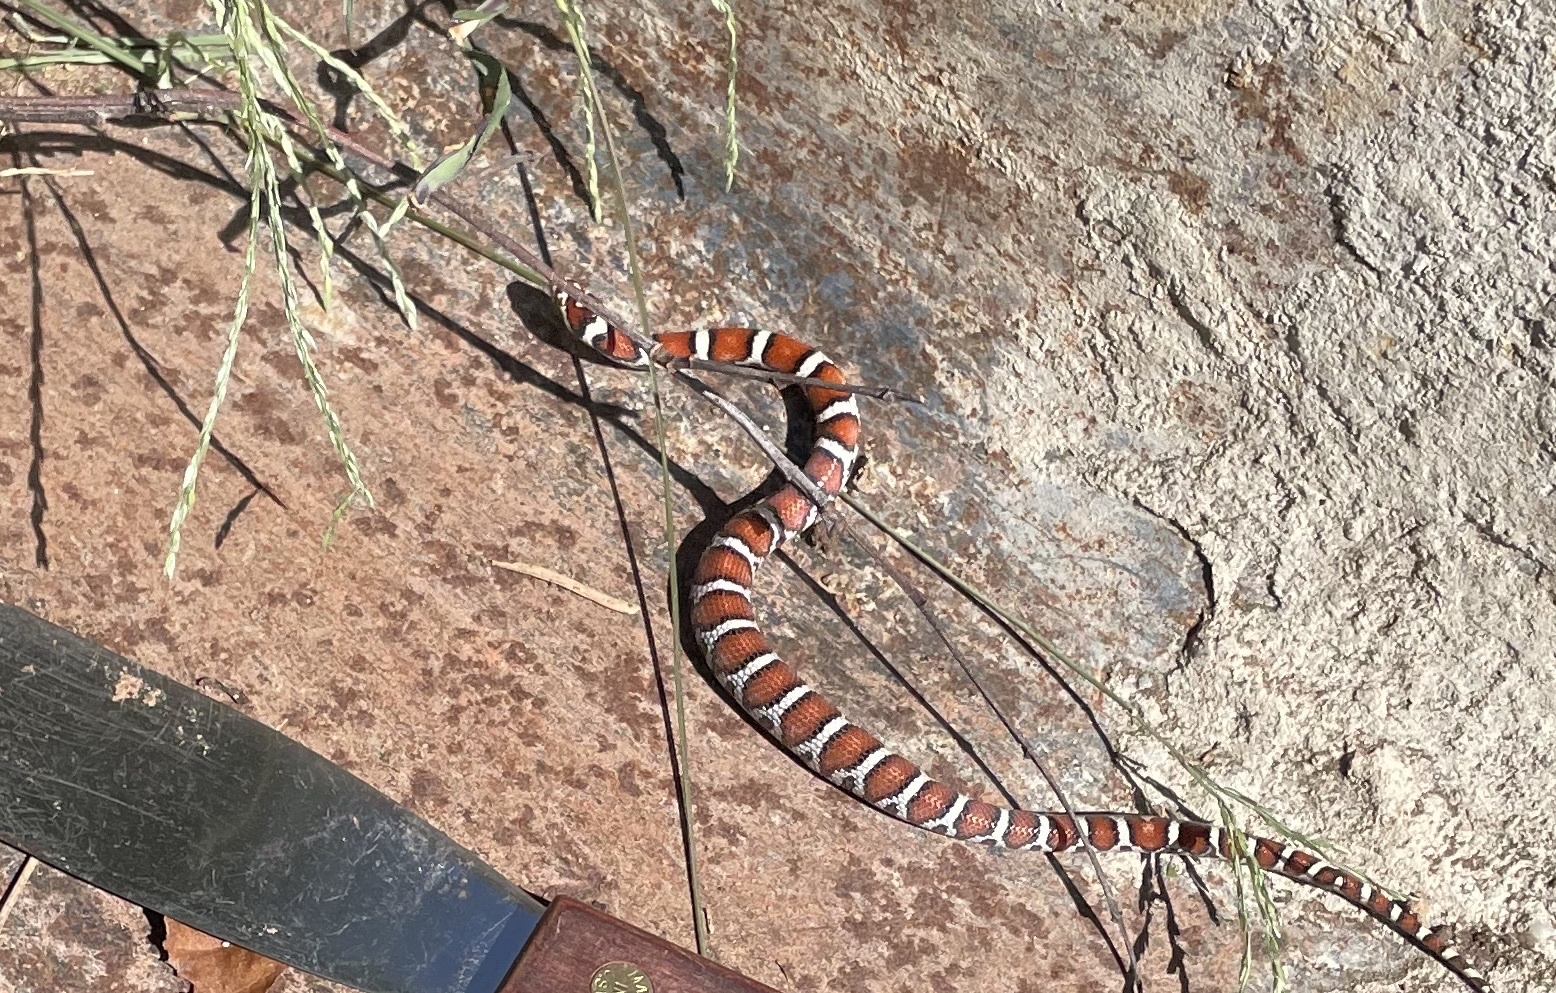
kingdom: Animalia
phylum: Chordata
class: Squamata
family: Colubridae
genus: Lampropeltis
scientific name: Lampropeltis triangulum
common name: Eastern milksnake
